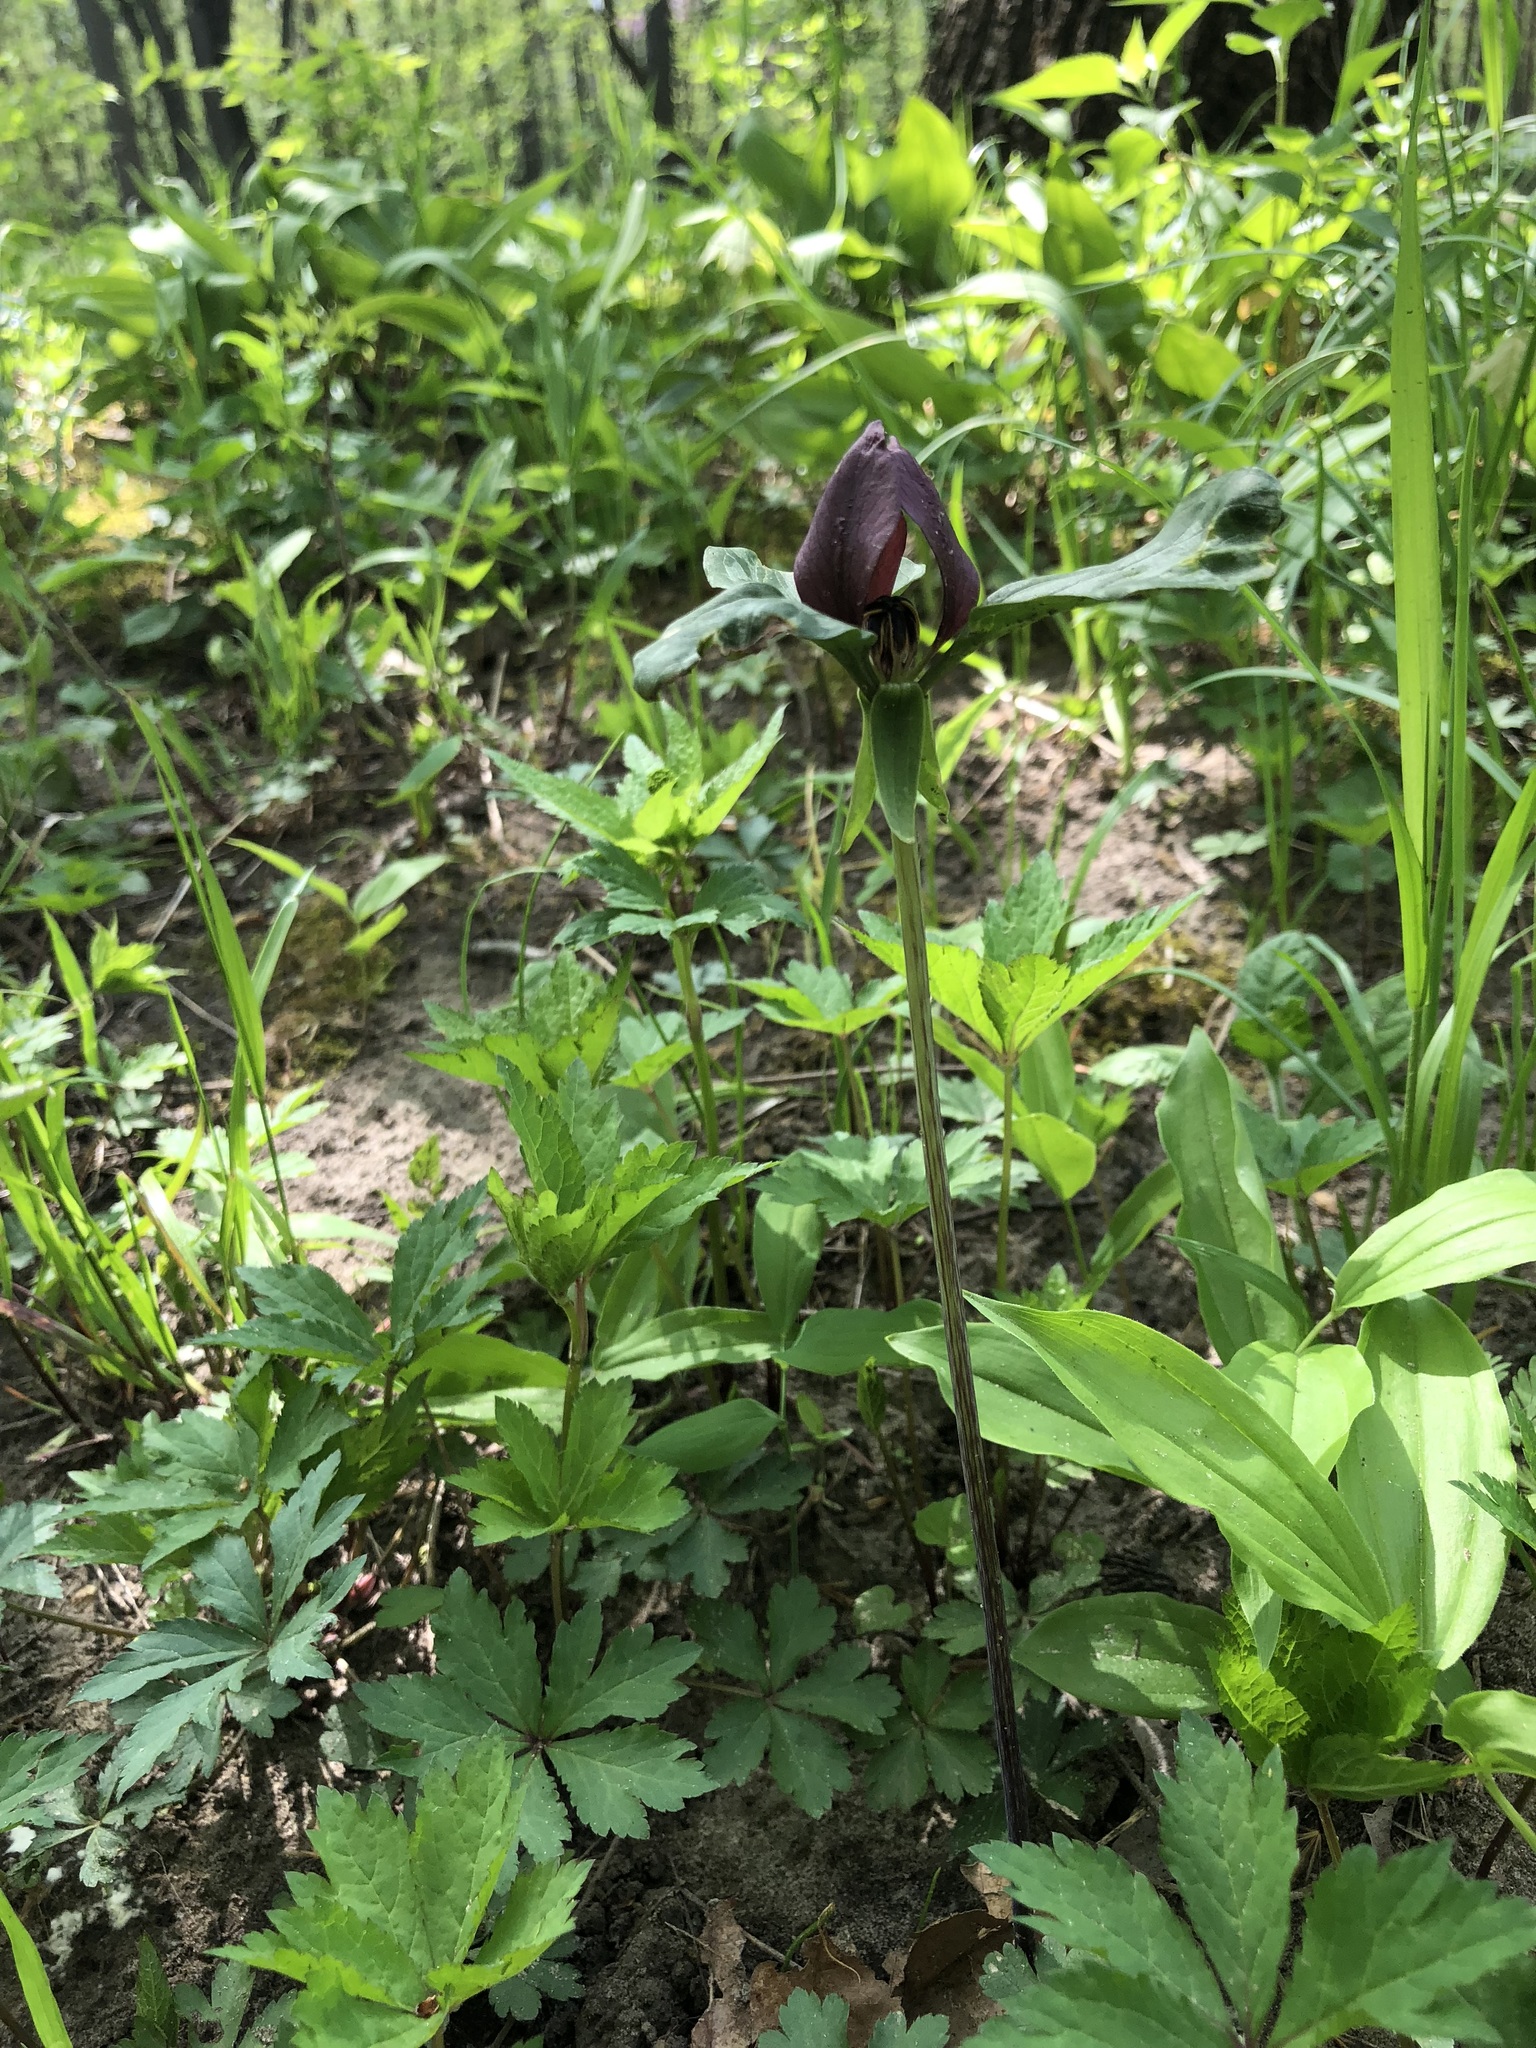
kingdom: Plantae
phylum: Tracheophyta
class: Liliopsida
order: Liliales
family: Melanthiaceae
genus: Trillium
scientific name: Trillium recurvatum
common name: Bloody butcher
